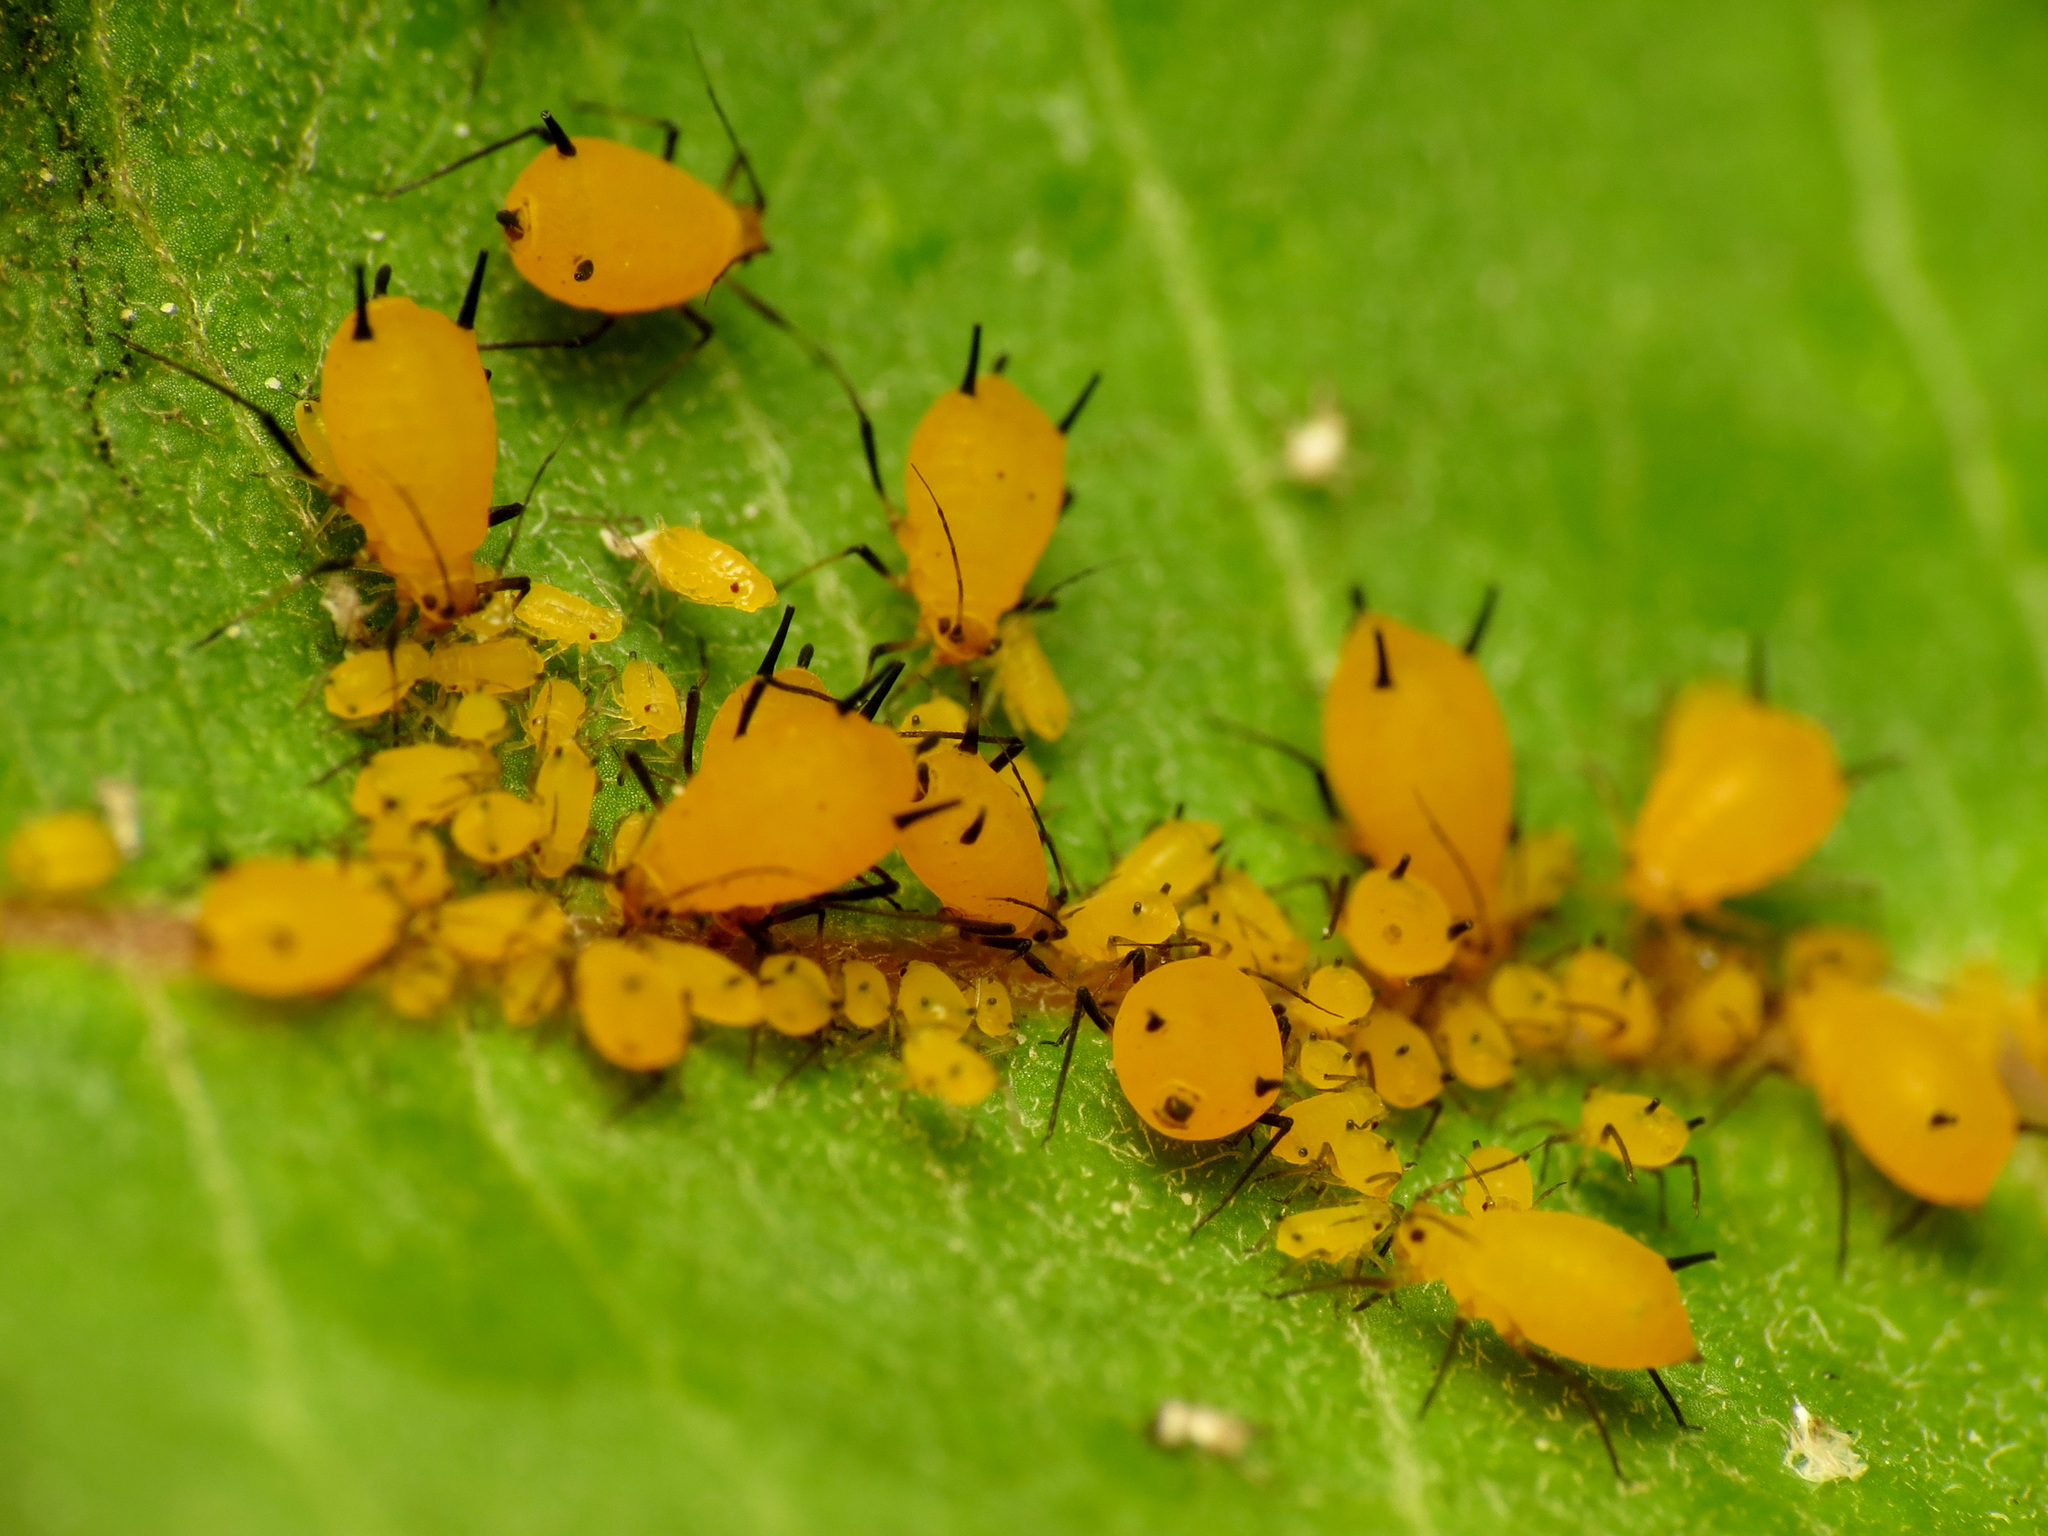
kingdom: Animalia
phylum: Arthropoda
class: Insecta
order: Hemiptera
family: Aphididae
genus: Aphis
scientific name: Aphis nerii
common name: Oleander aphid
